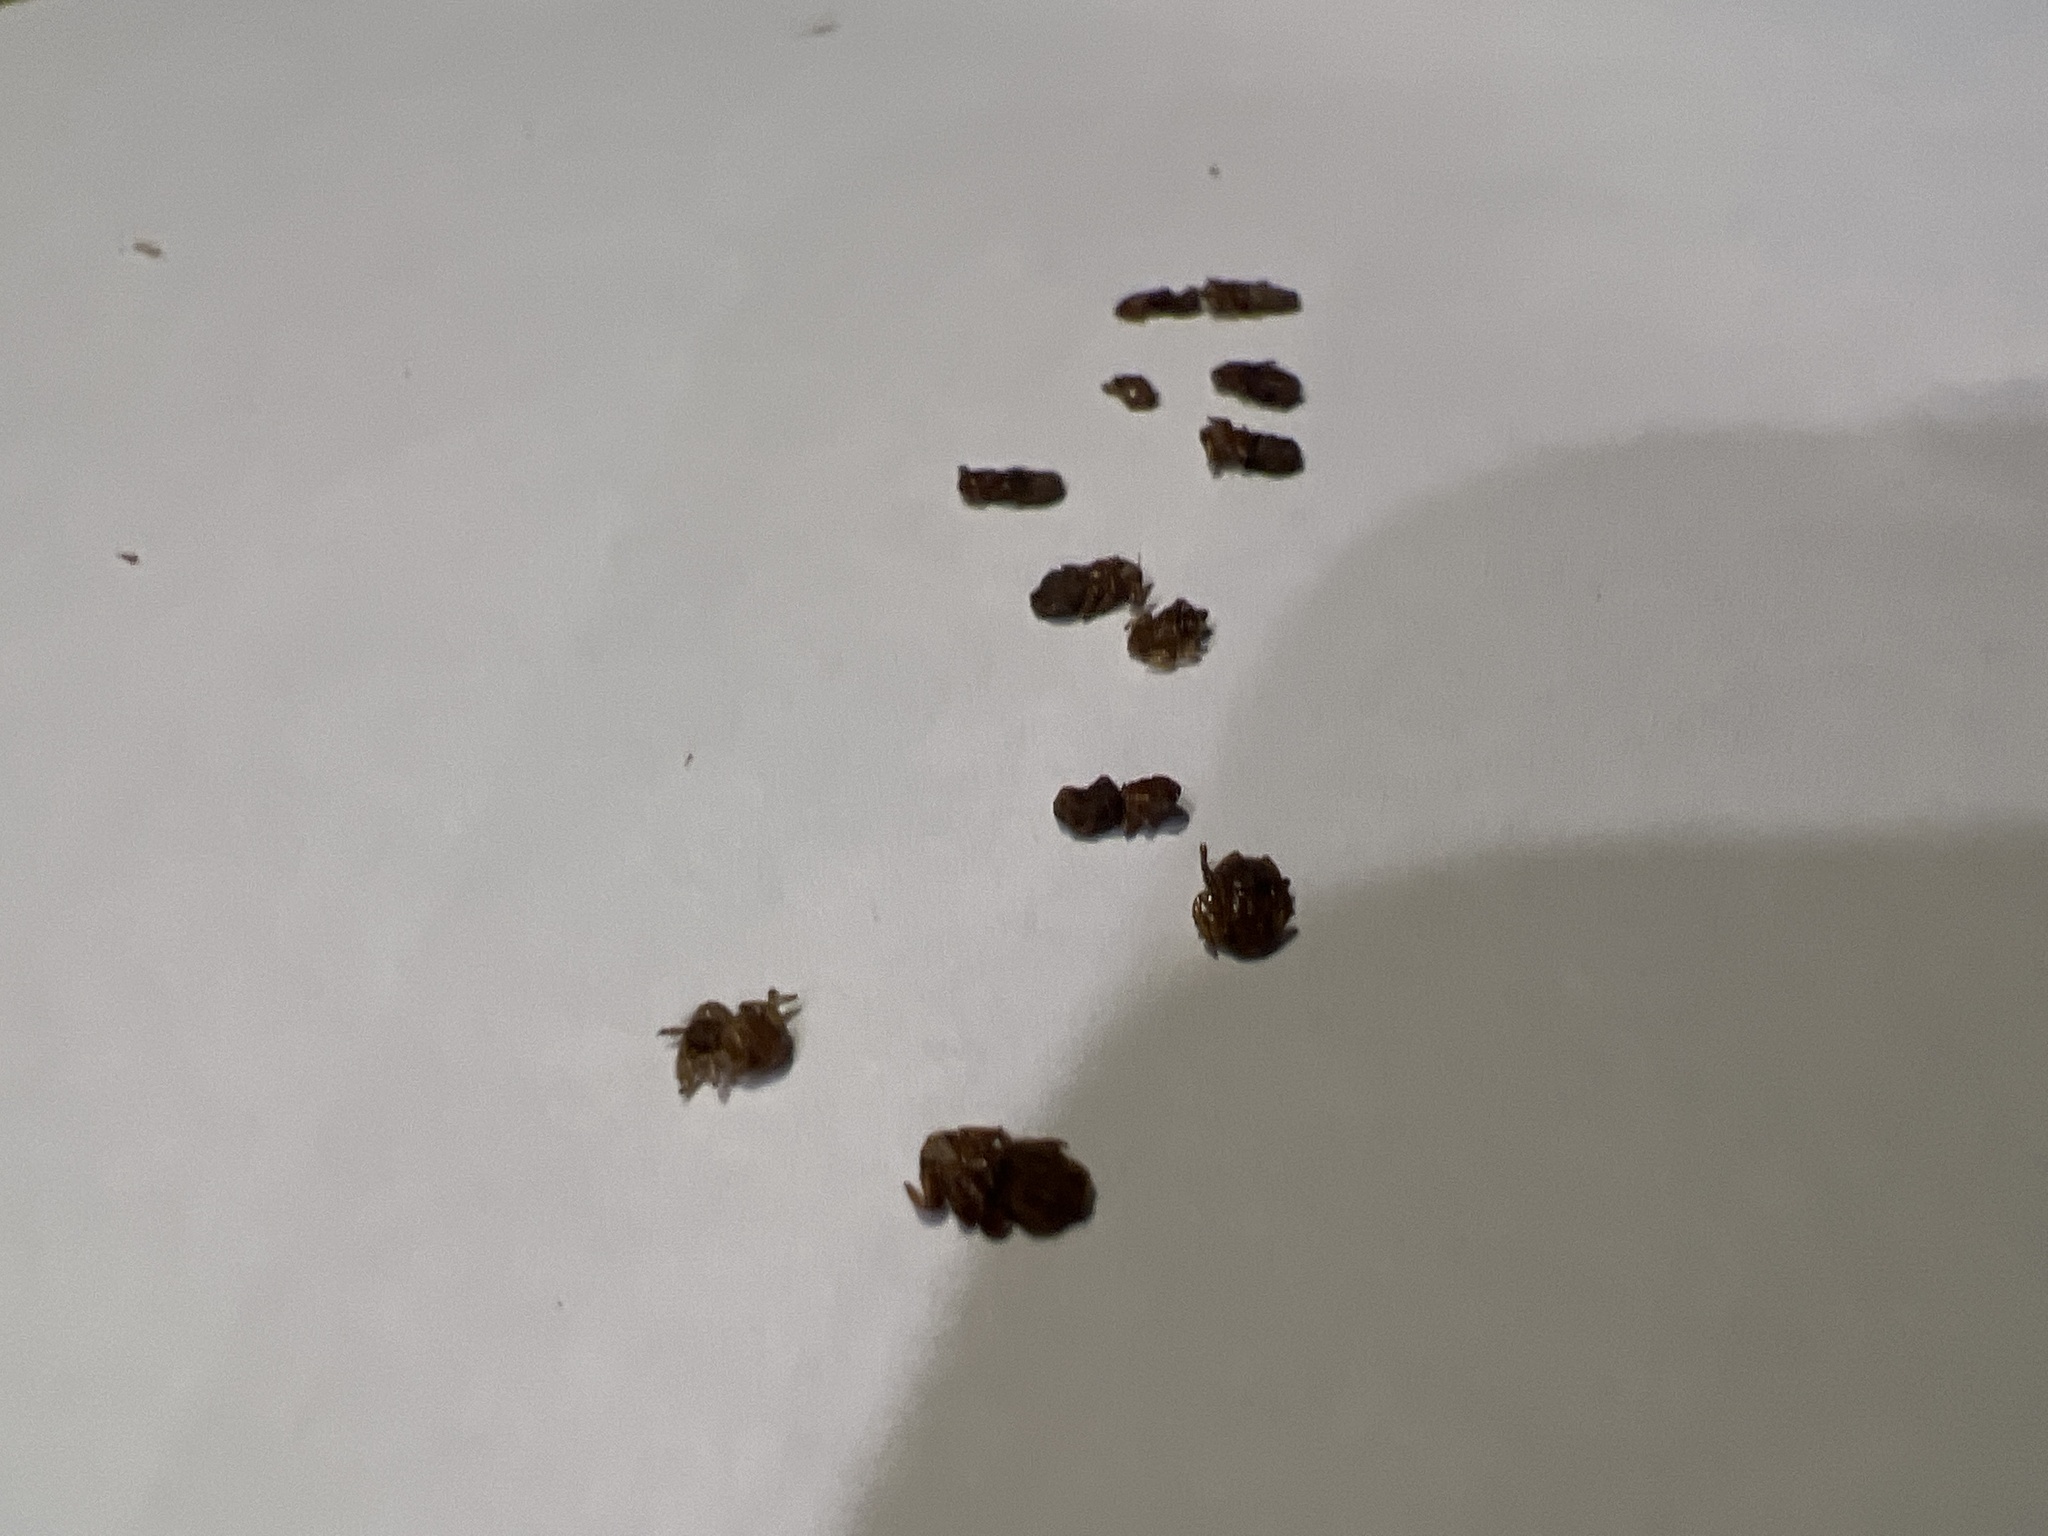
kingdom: Animalia
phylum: Arthropoda
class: Insecta
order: Diptera
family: Hippoboscidae
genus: Melophagus
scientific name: Melophagus ovinus
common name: Sheep ked
